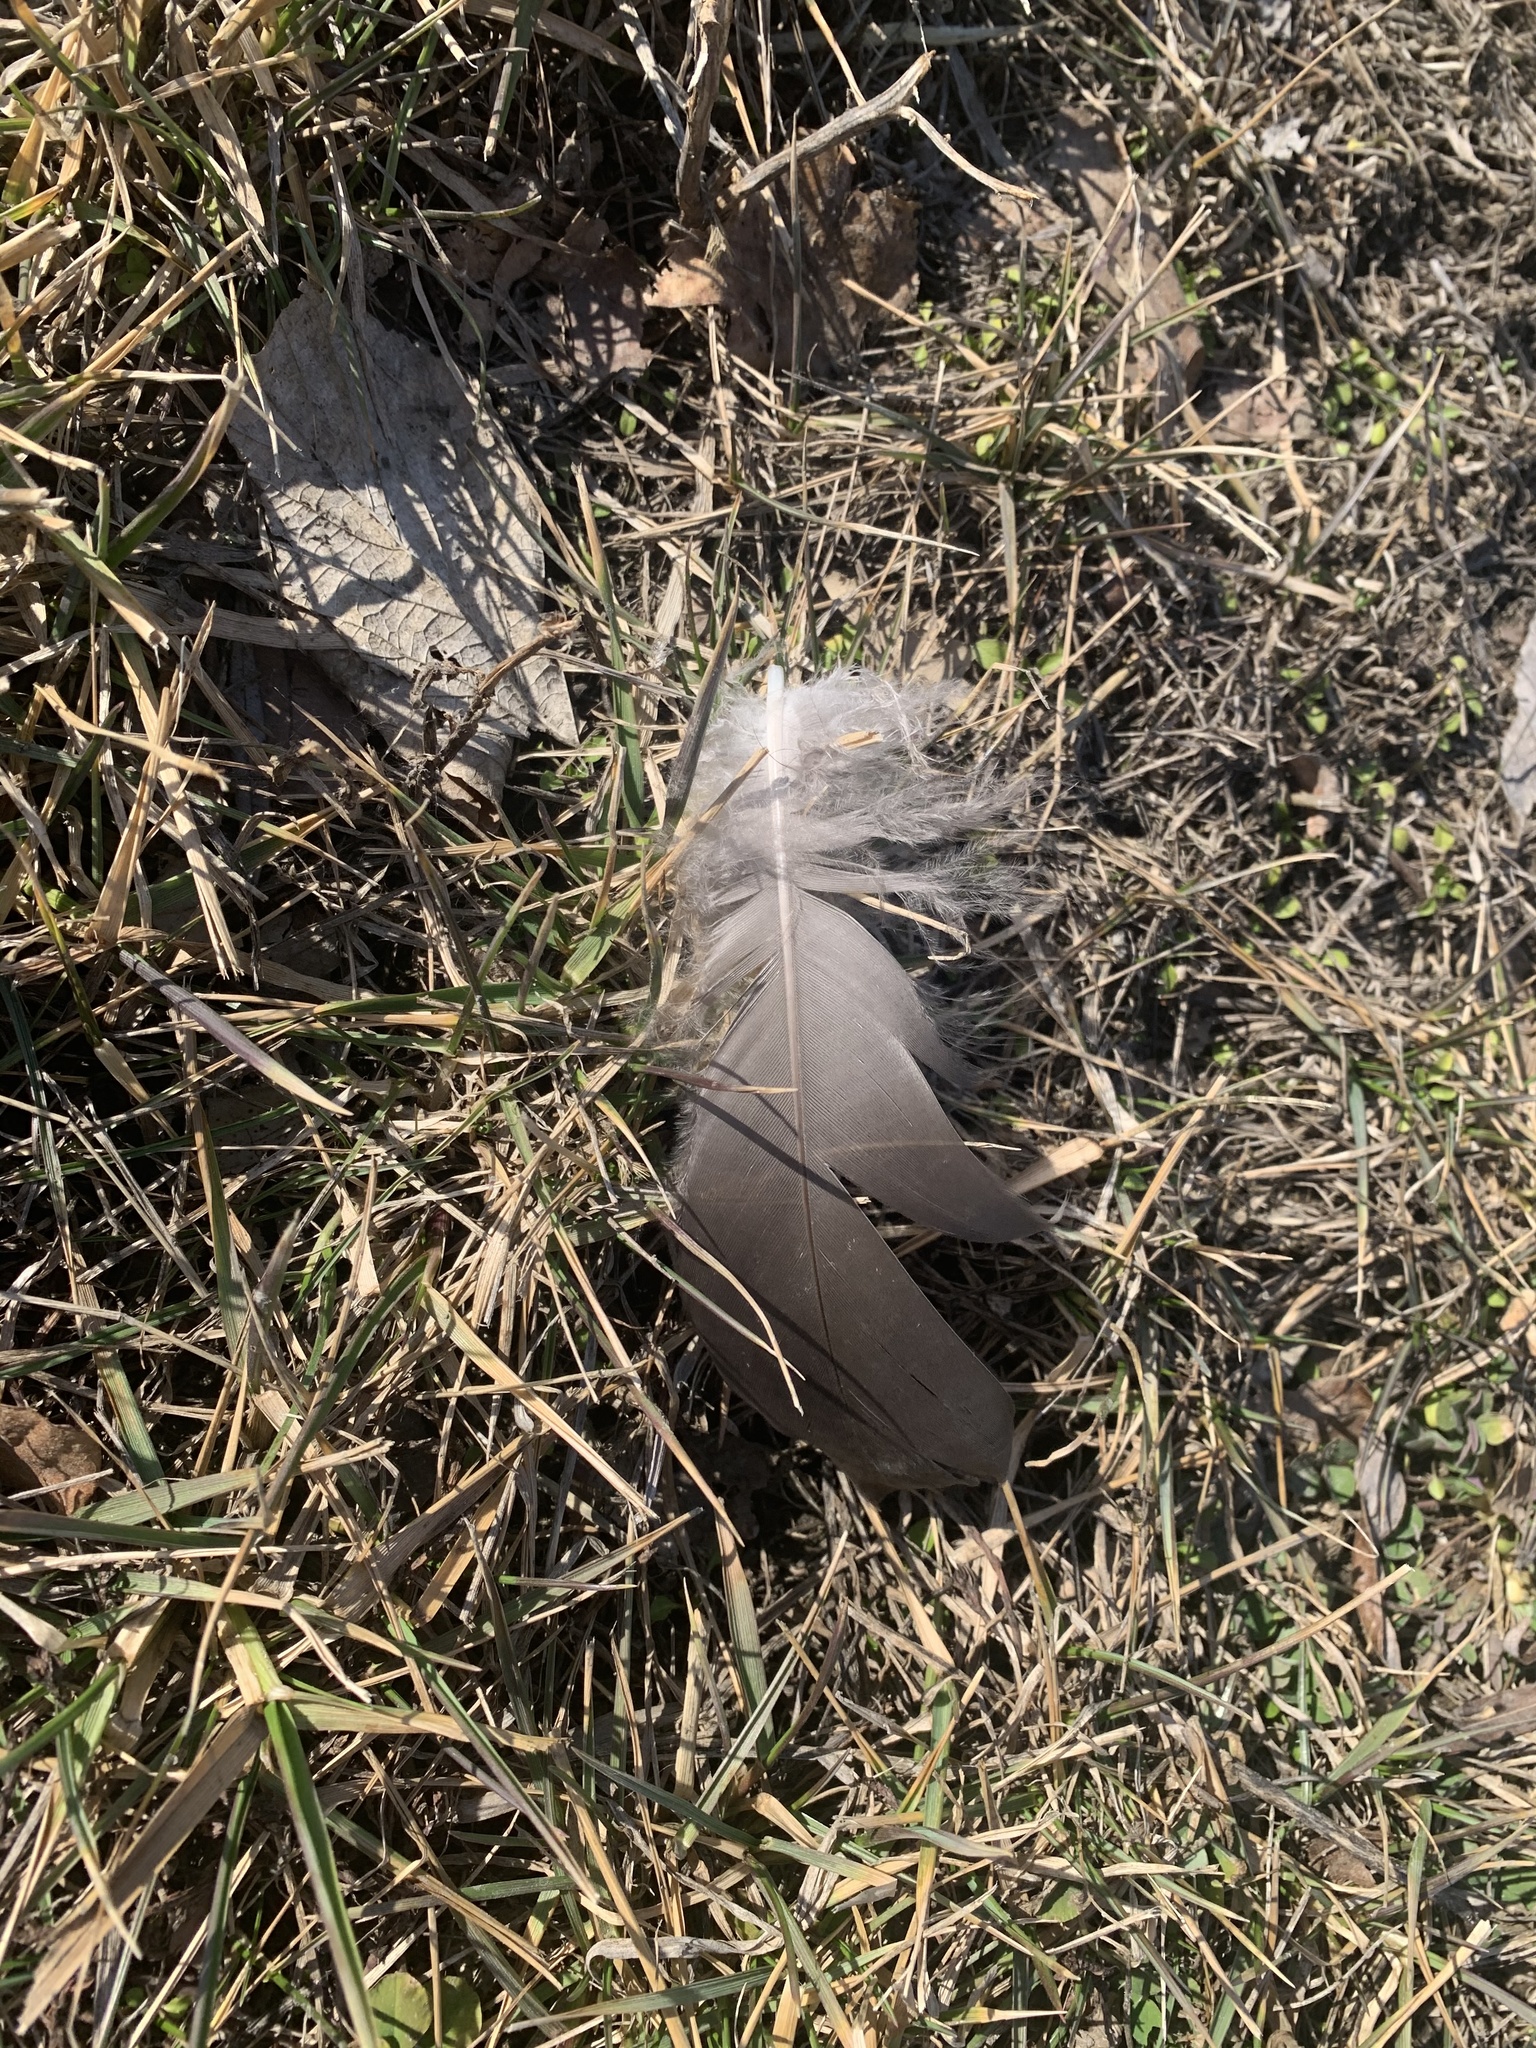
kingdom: Animalia
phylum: Chordata
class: Aves
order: Anseriformes
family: Anatidae
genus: Branta
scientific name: Branta canadensis
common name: Canada goose
